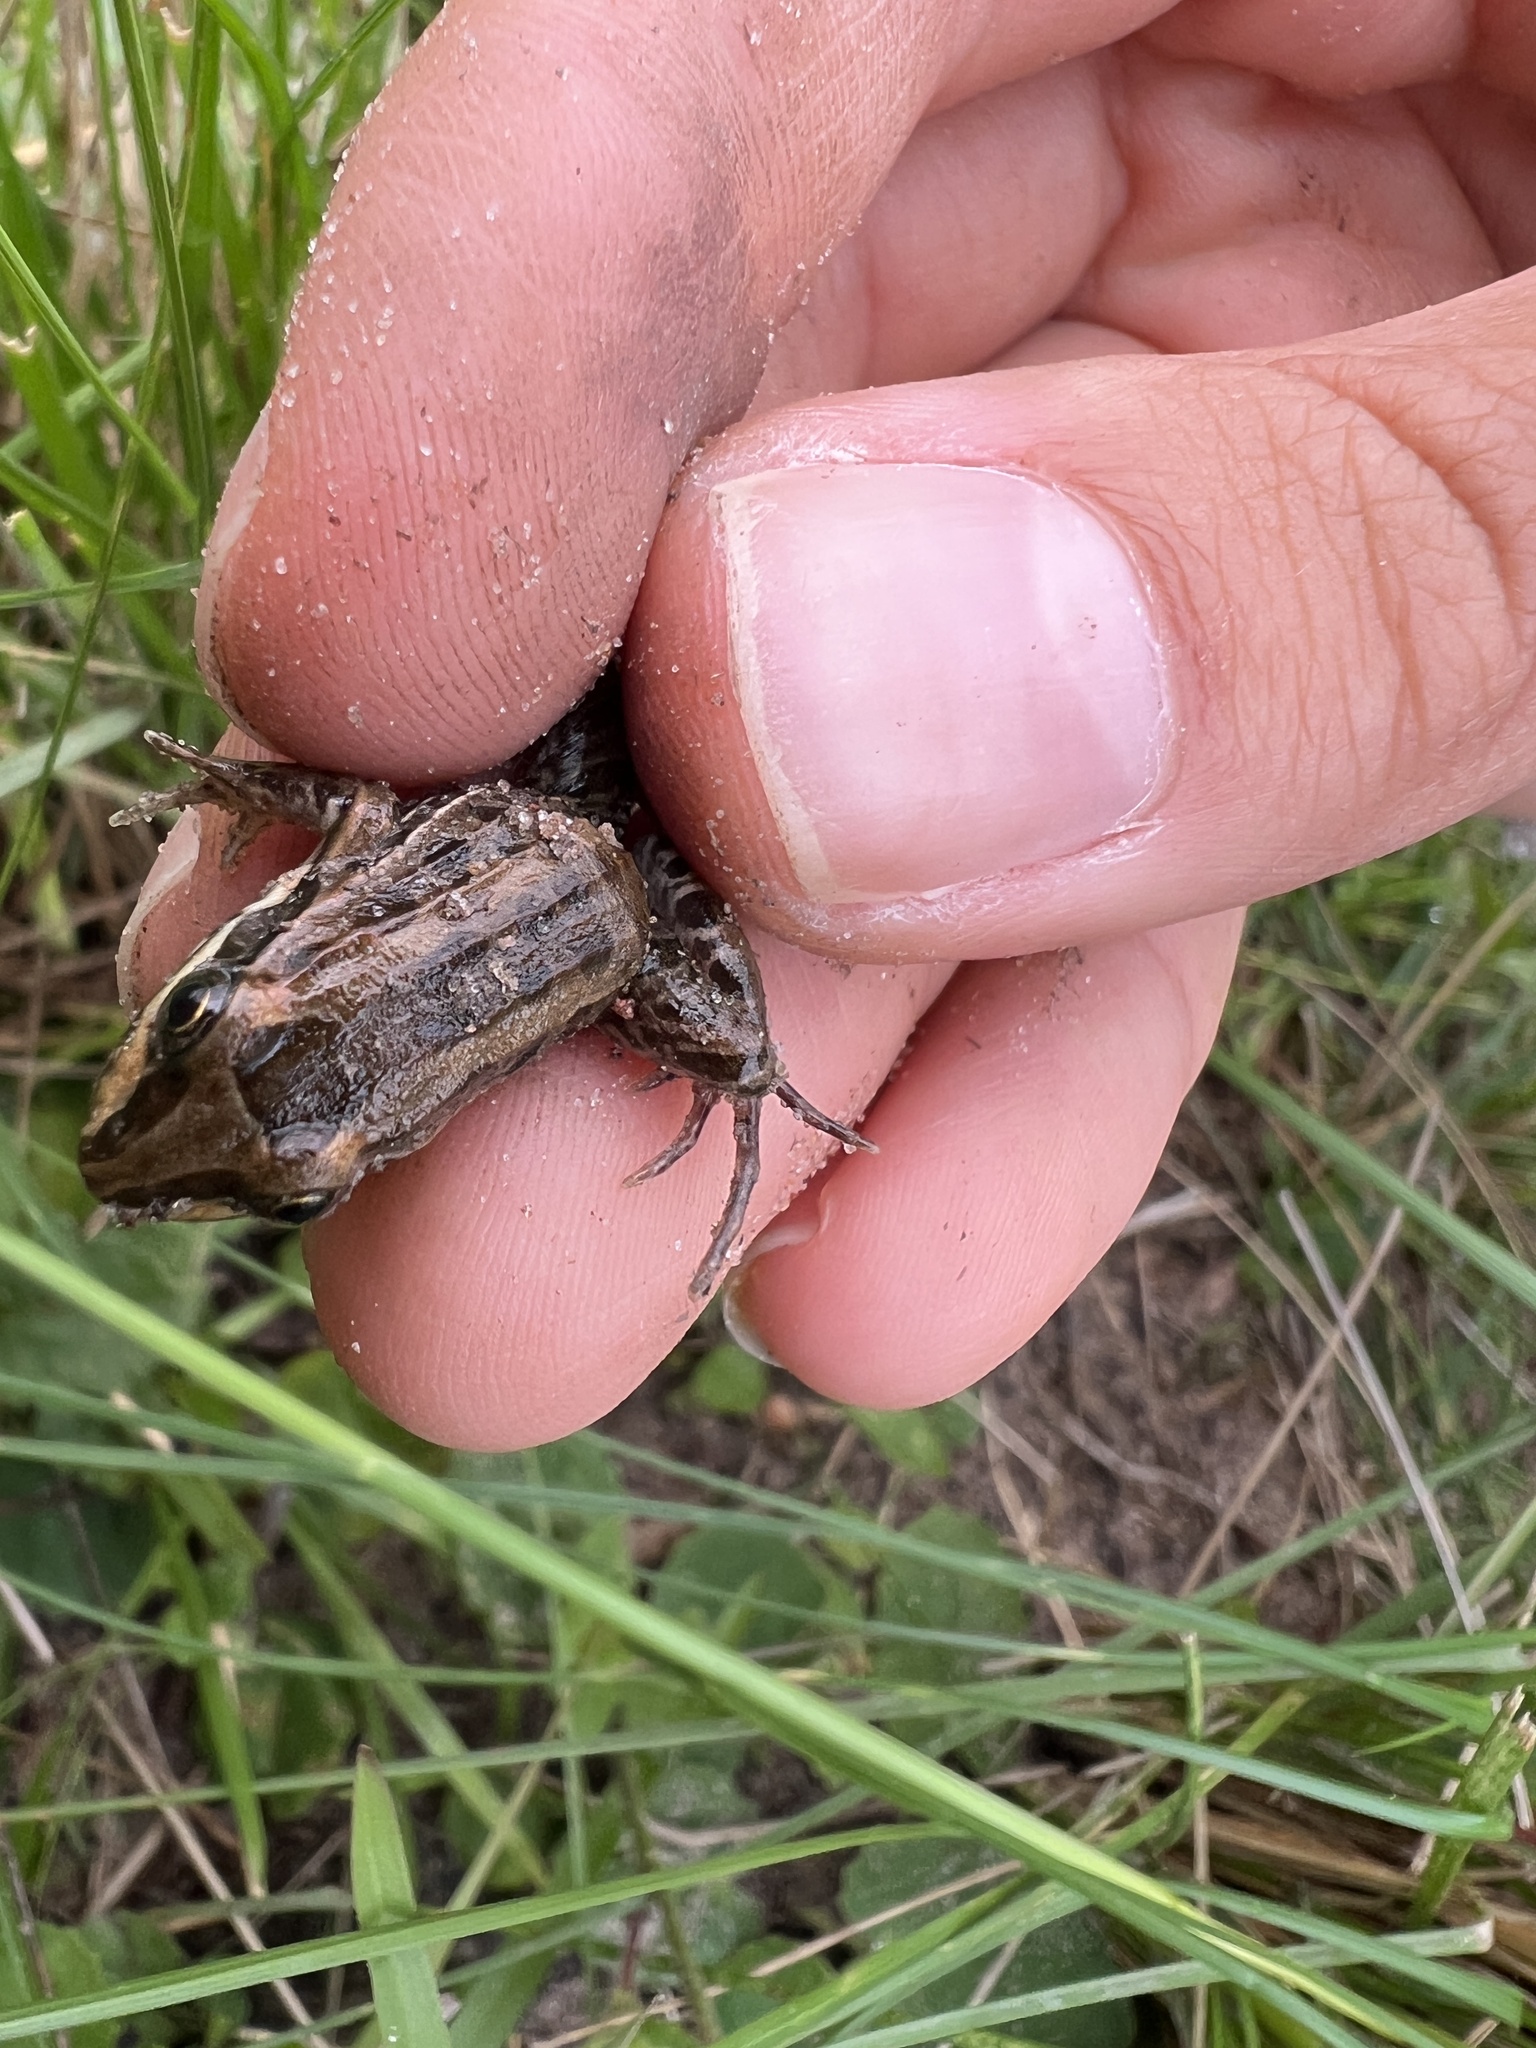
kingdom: Animalia
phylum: Chordata
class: Amphibia
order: Anura
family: Leptodactylidae
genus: Leptodactylus
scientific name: Leptodactylus fuscus
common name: Rufous frog
